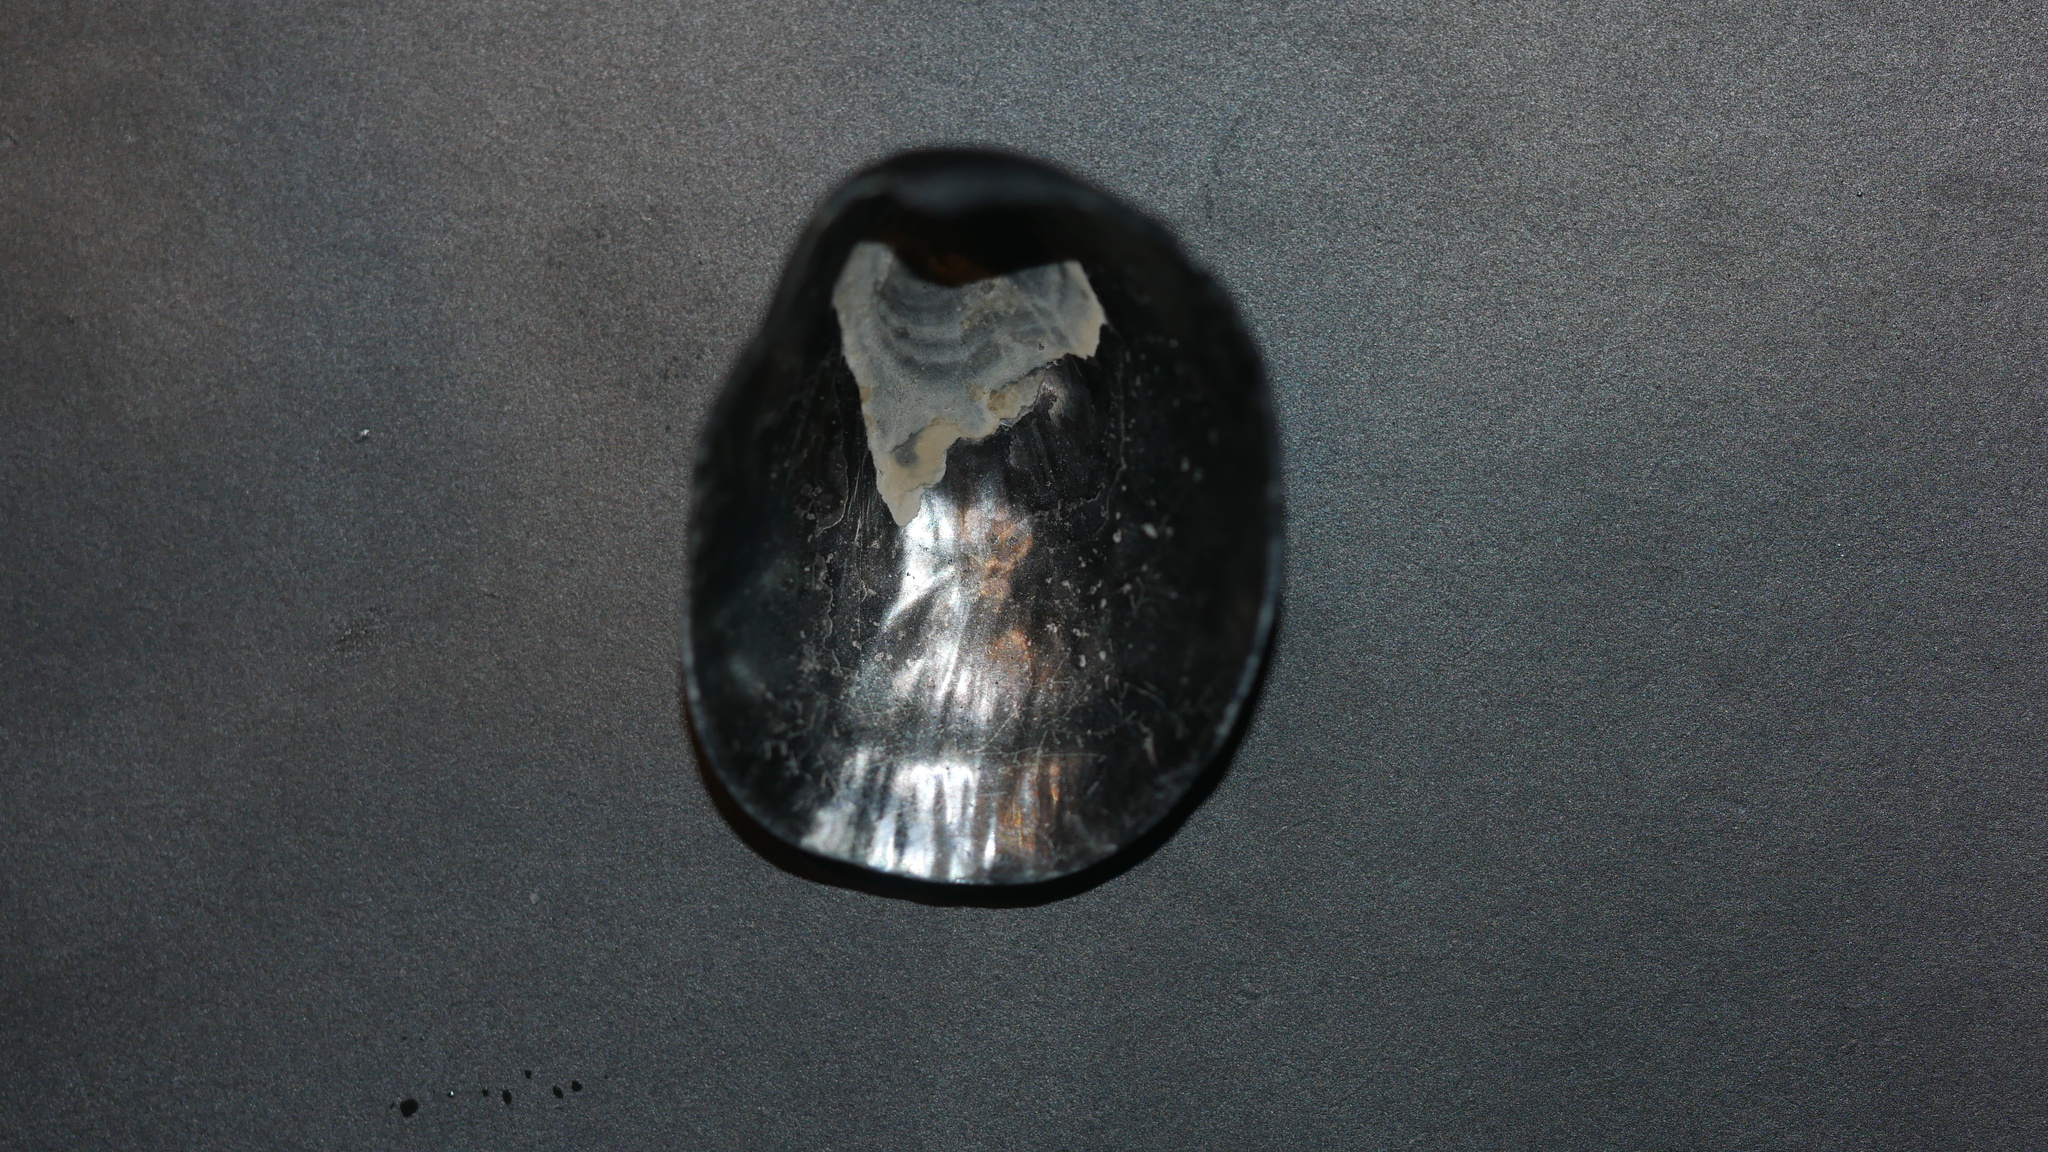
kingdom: Animalia
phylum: Mollusca
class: Bivalvia
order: Pectinida
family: Anomiidae
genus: Anomia
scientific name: Anomia simplex
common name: Common jingle shell
